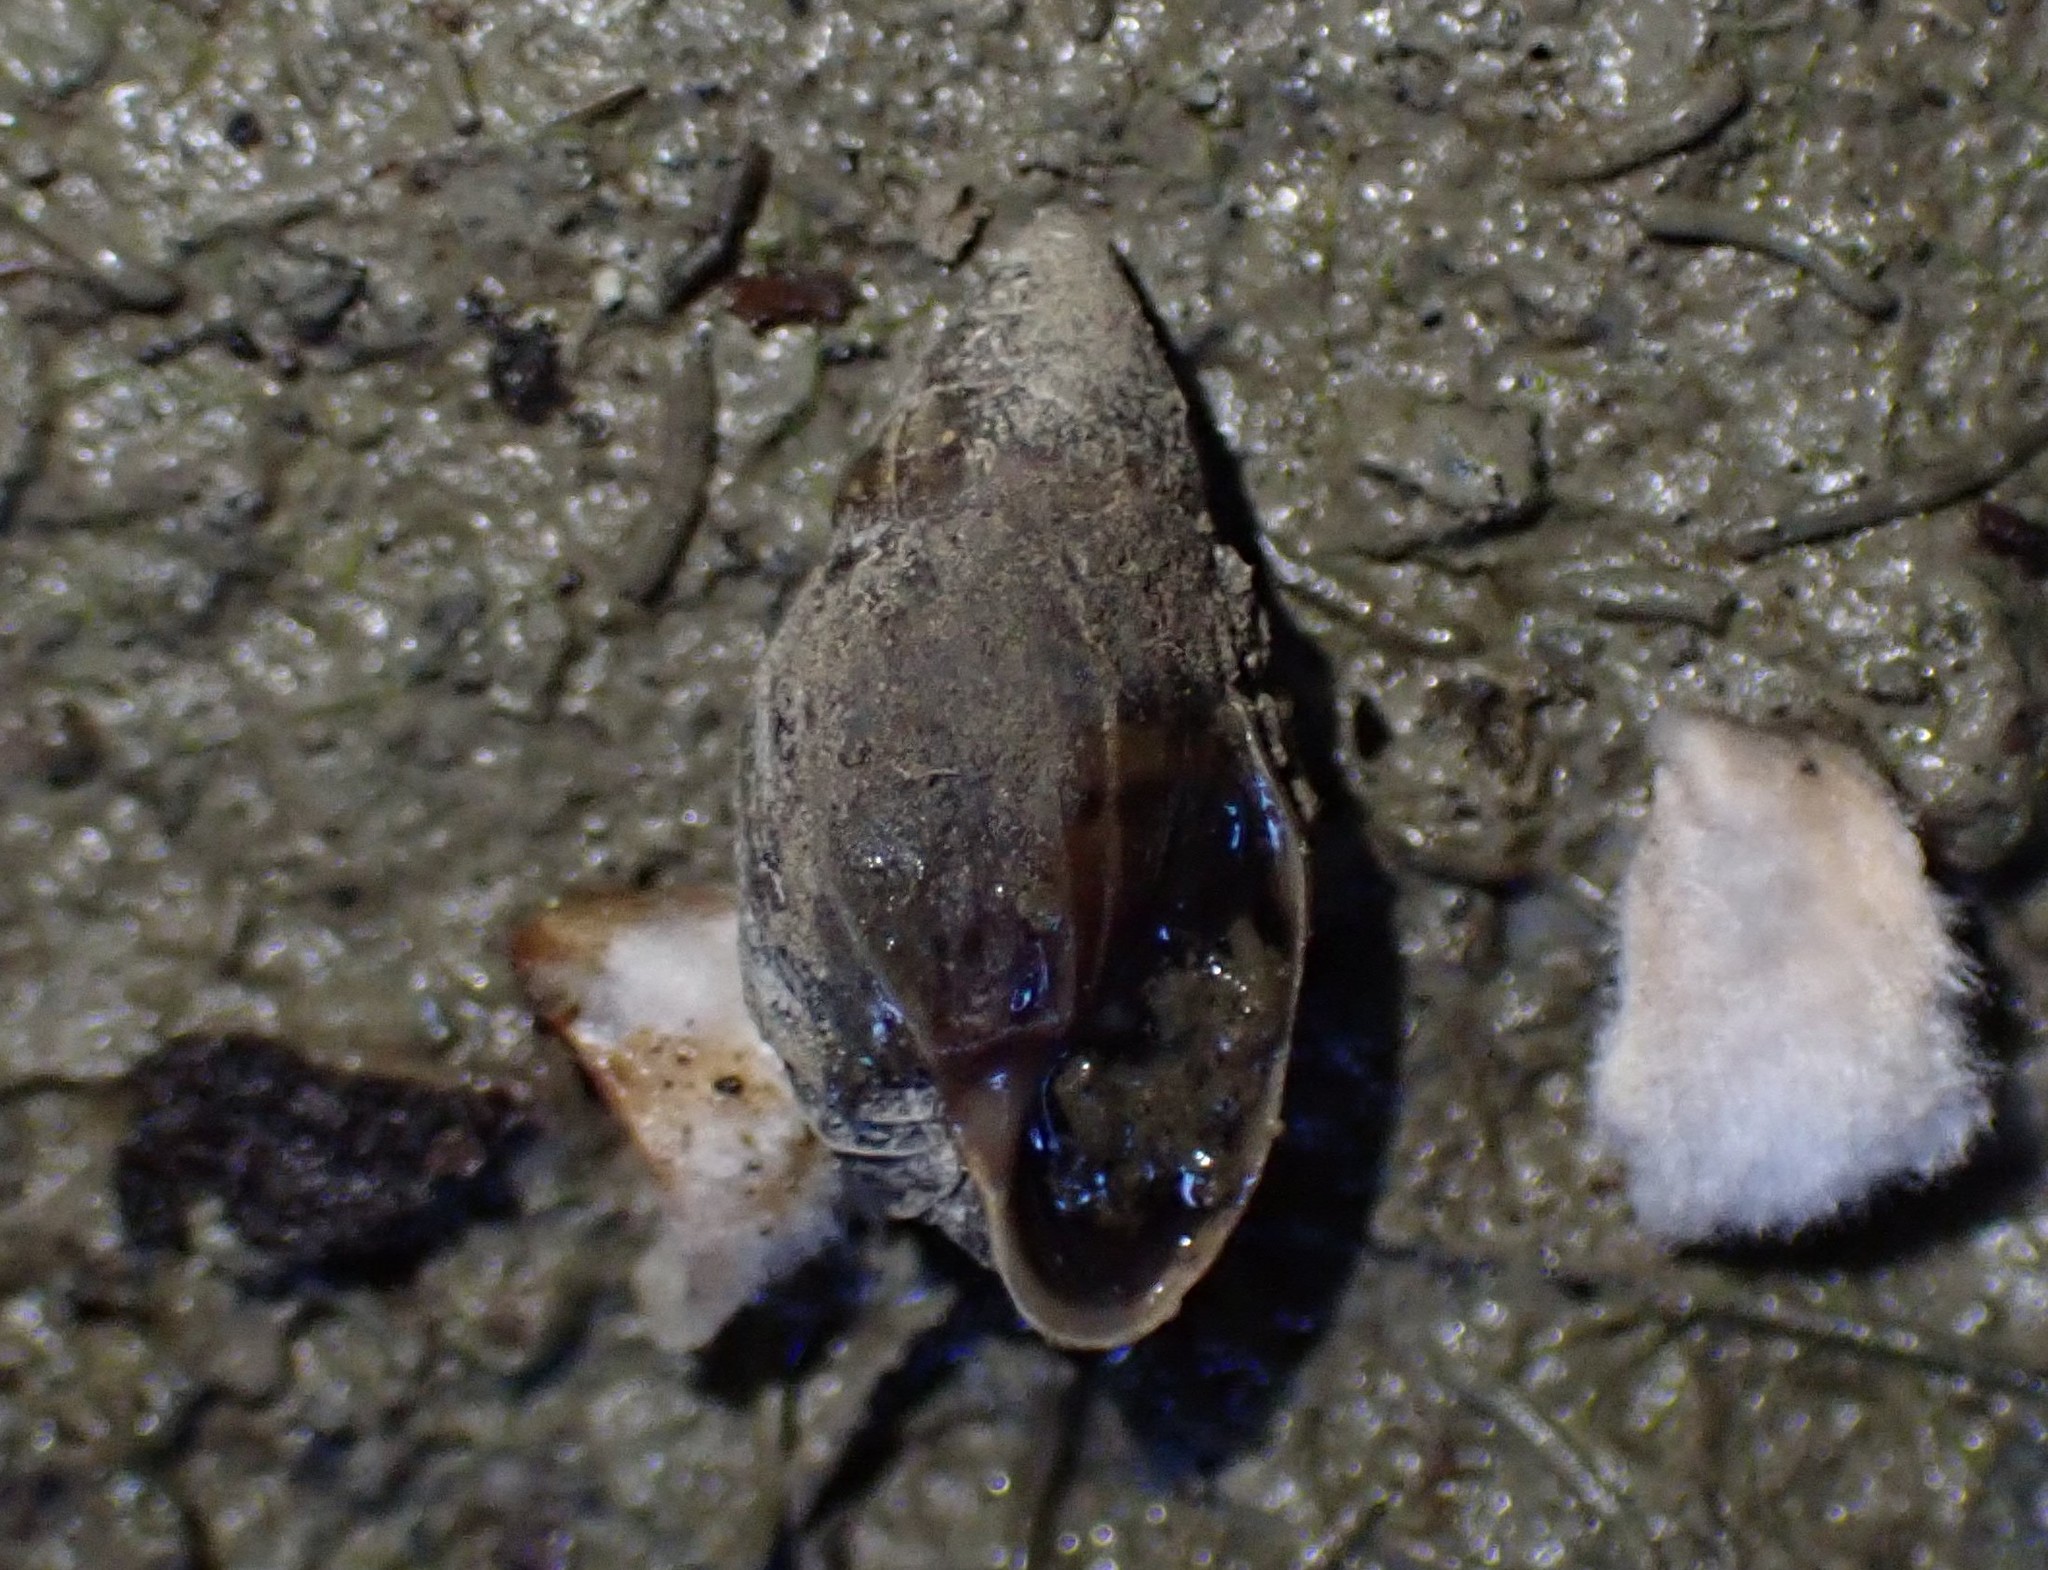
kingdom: Animalia
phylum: Mollusca
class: Gastropoda
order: Ellobiida
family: Ellobiidae
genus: Pleuroloba
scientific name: Pleuroloba costellaris
